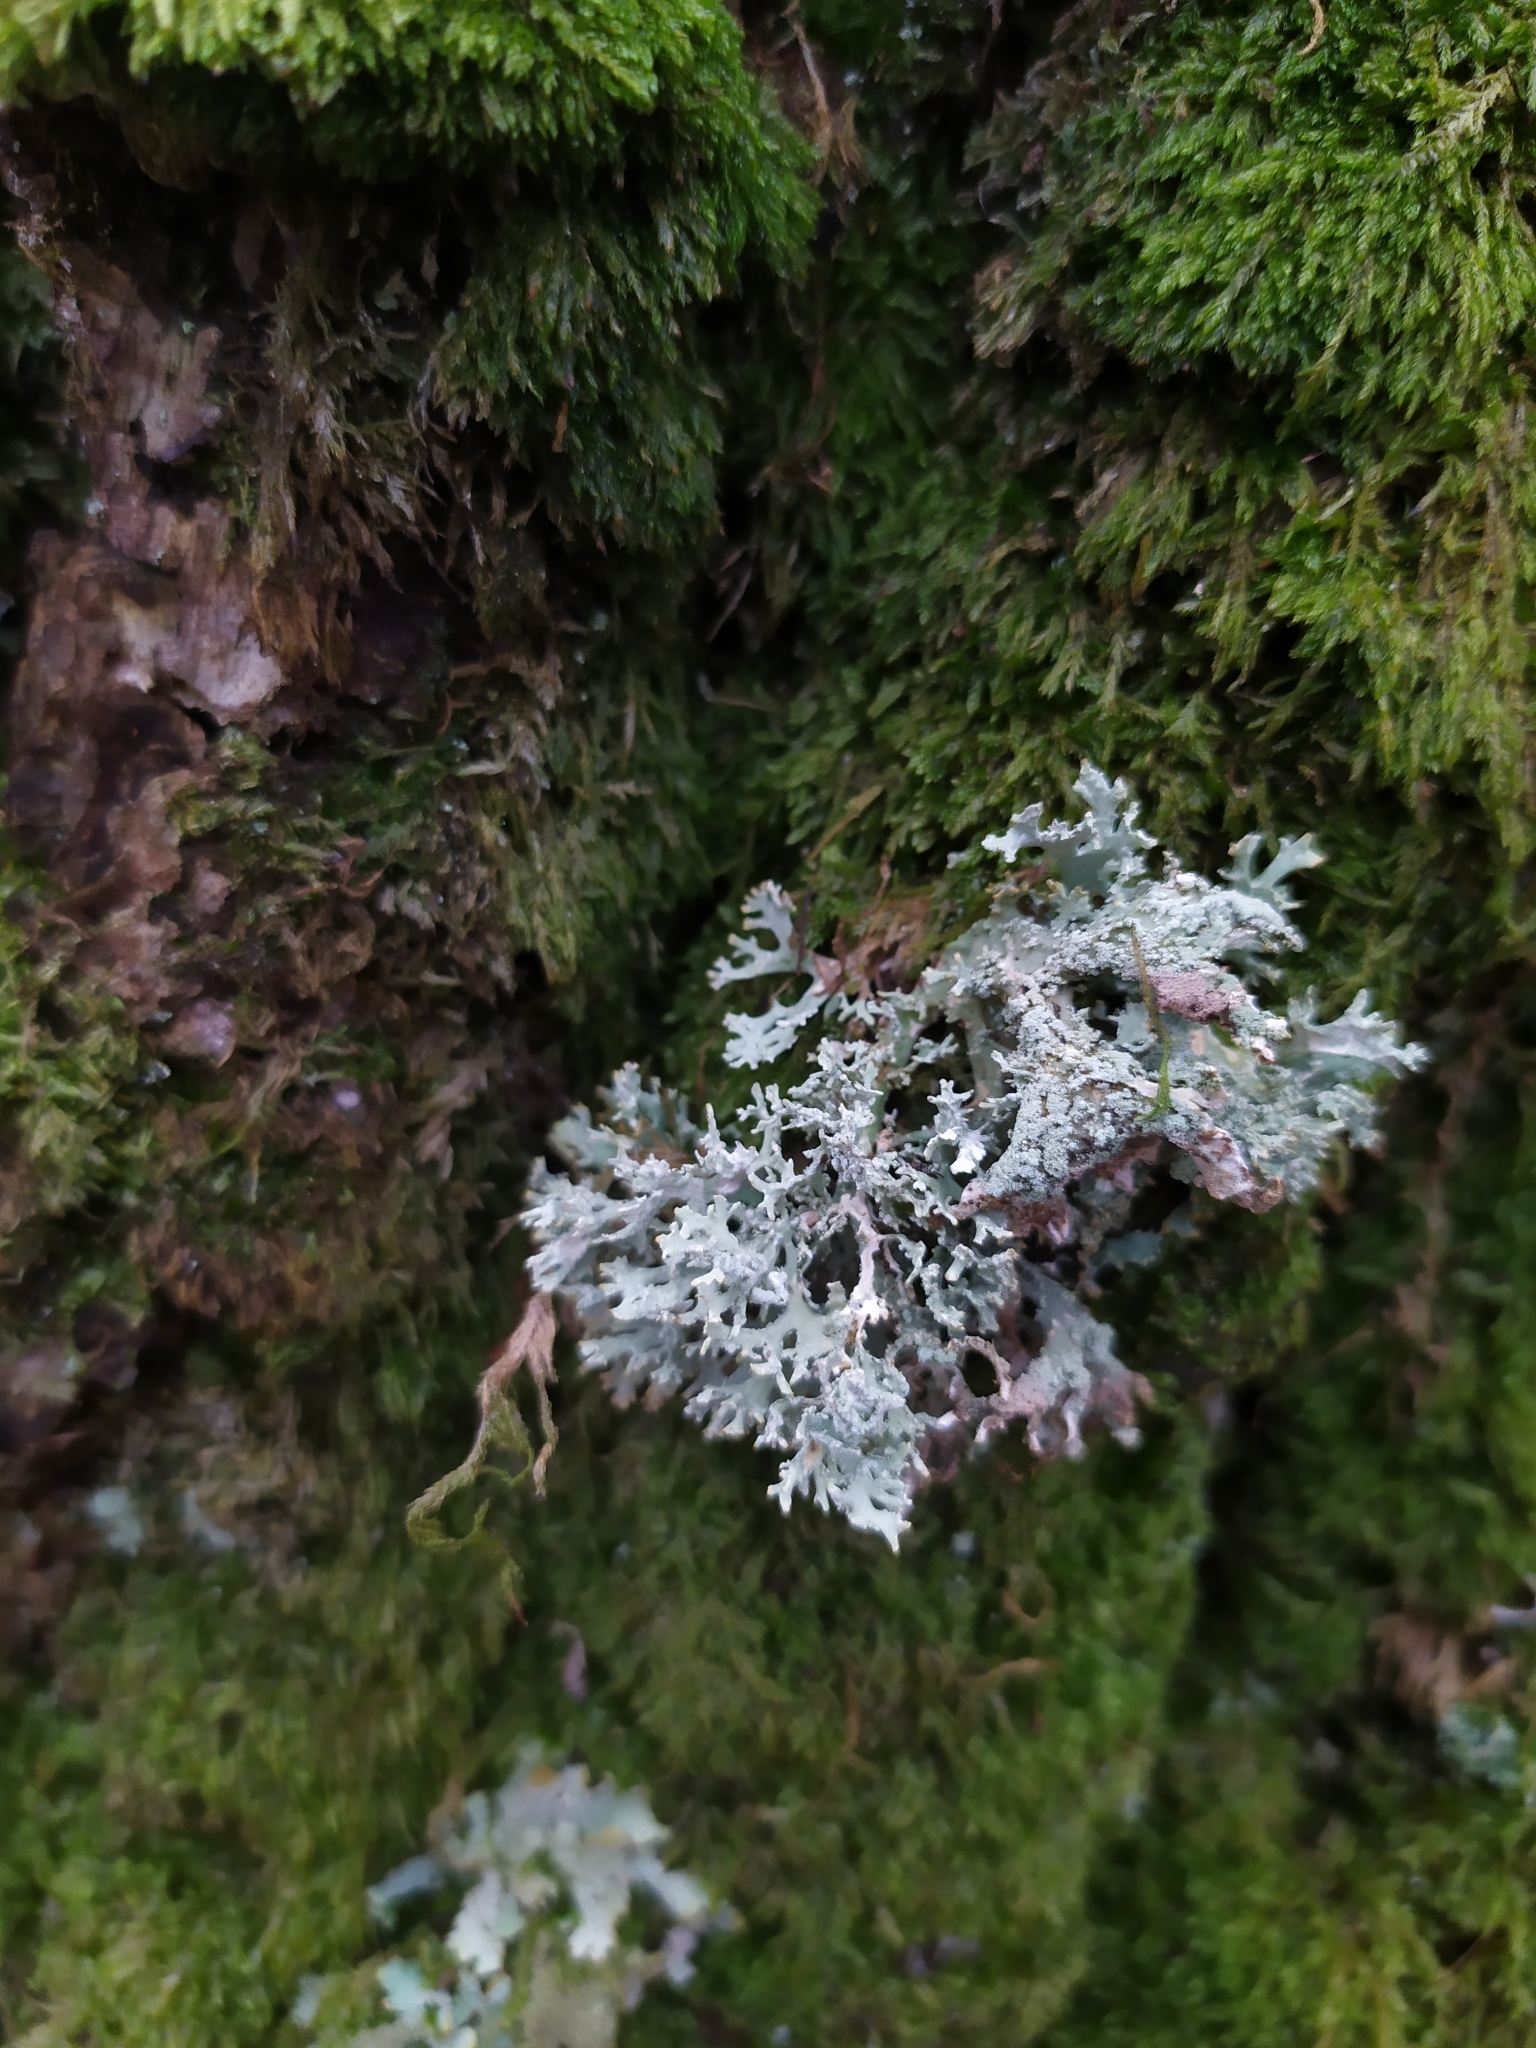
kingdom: Fungi
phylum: Ascomycota
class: Lecanoromycetes
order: Lecanorales
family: Parmeliaceae
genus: Evernia
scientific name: Evernia prunastri
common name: Oak moss
